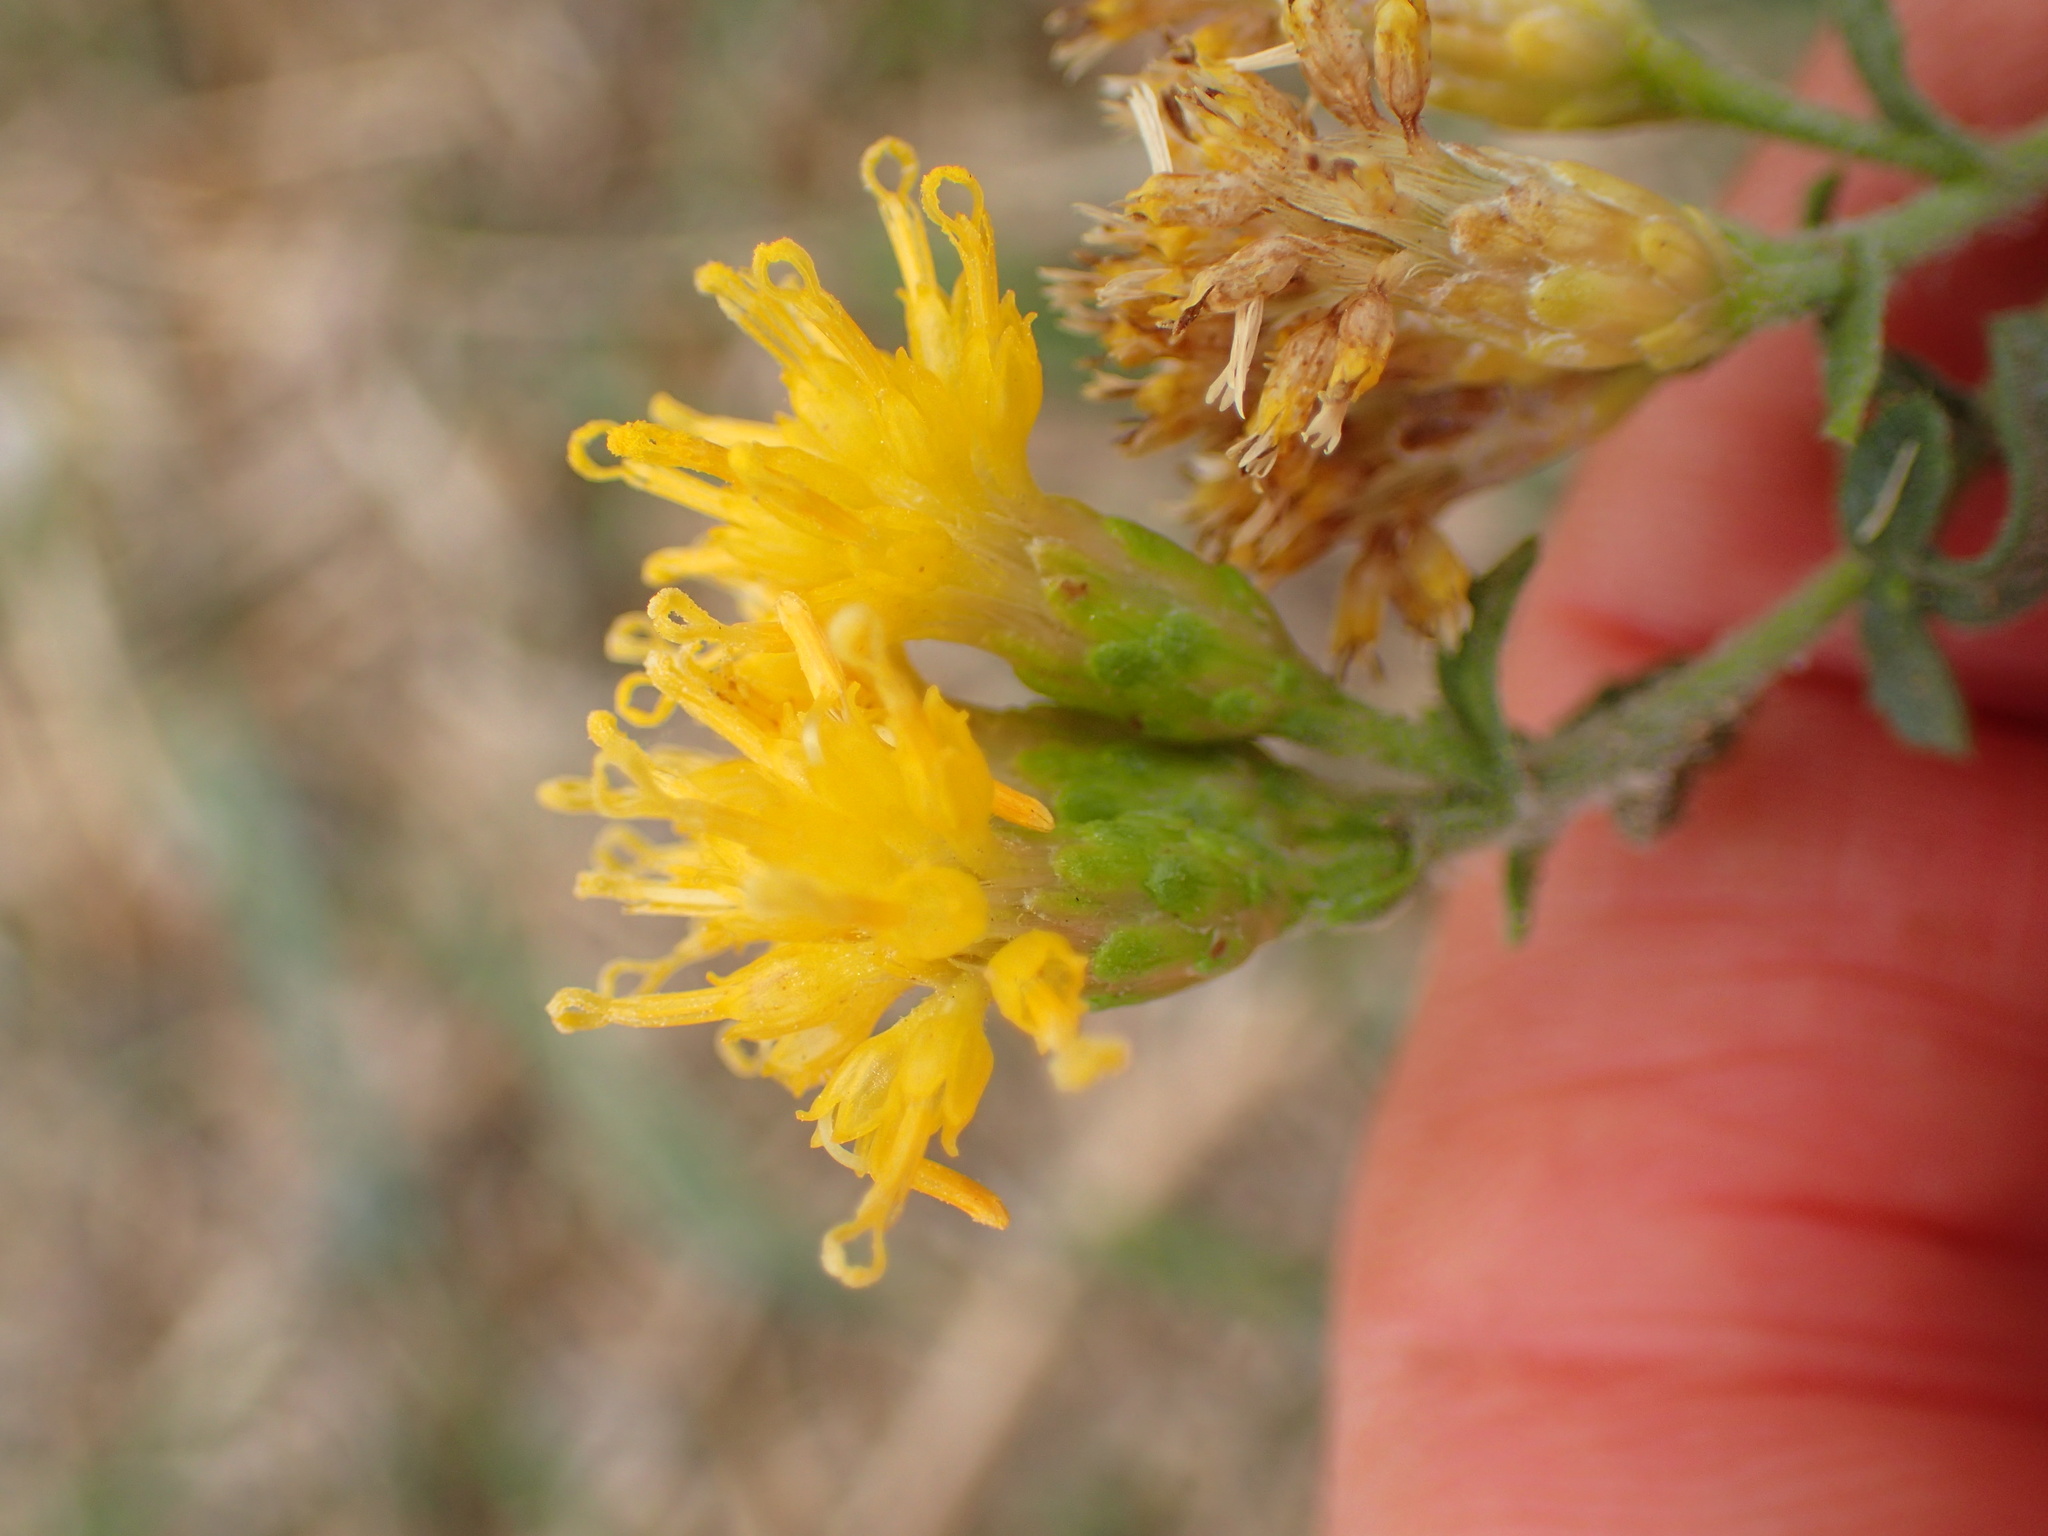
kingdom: Plantae
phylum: Tracheophyta
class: Magnoliopsida
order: Asterales
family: Asteraceae
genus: Isocoma
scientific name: Isocoma menziesii
